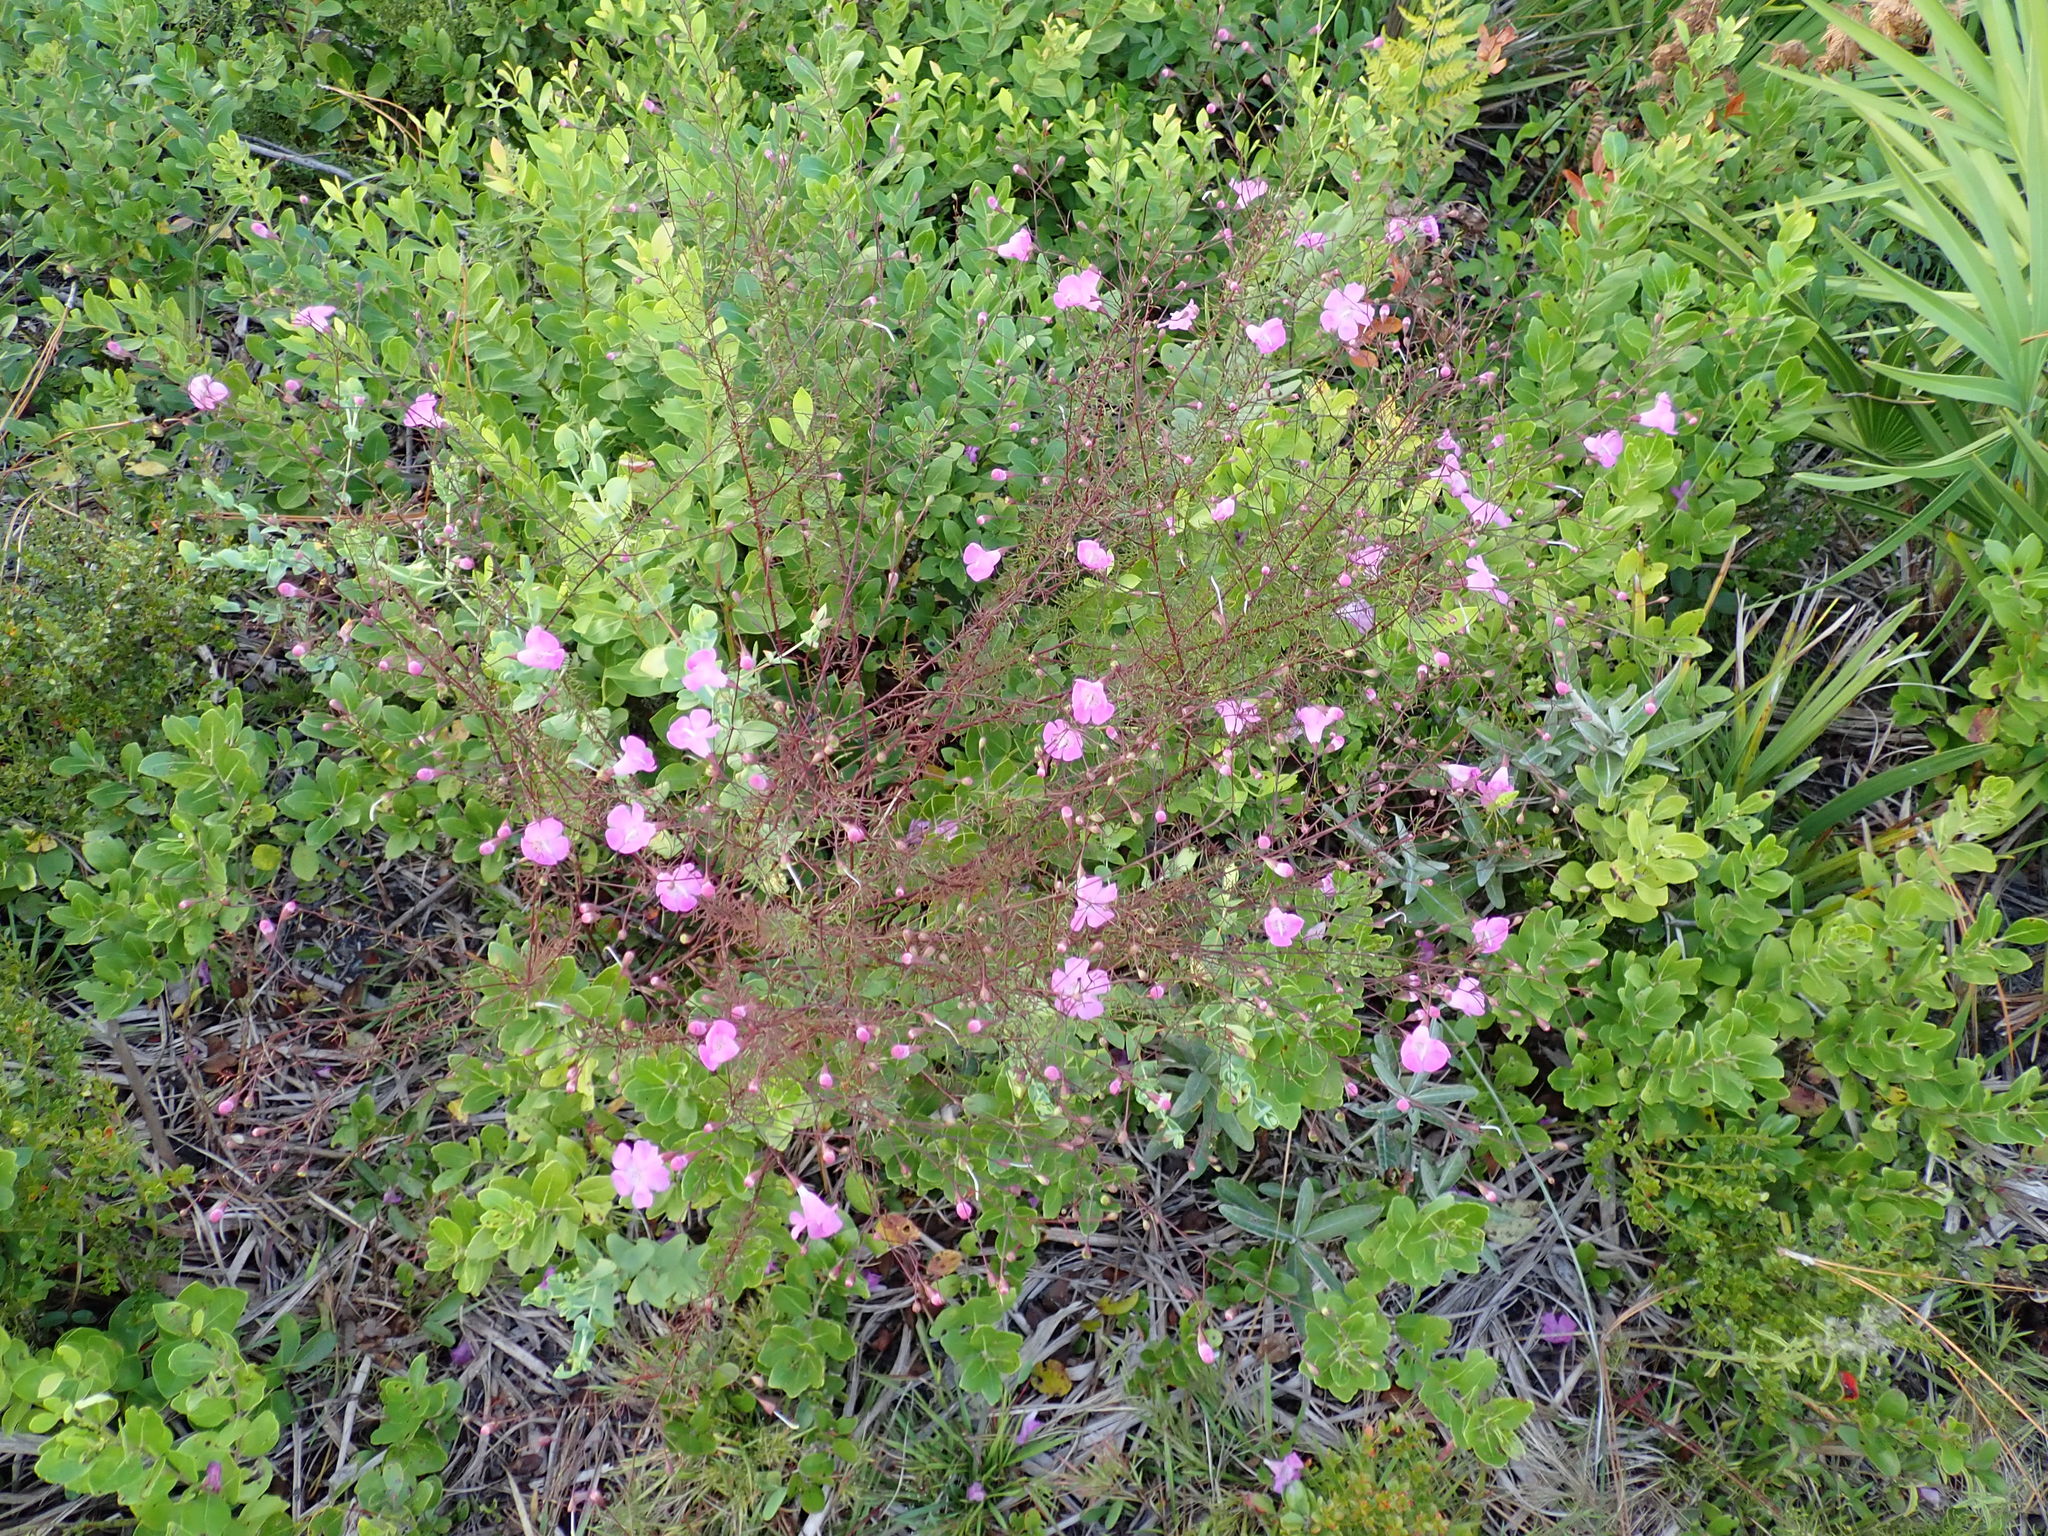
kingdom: Plantae
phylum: Tracheophyta
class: Magnoliopsida
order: Lamiales
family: Orobanchaceae
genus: Agalinis
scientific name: Agalinis filifolia
